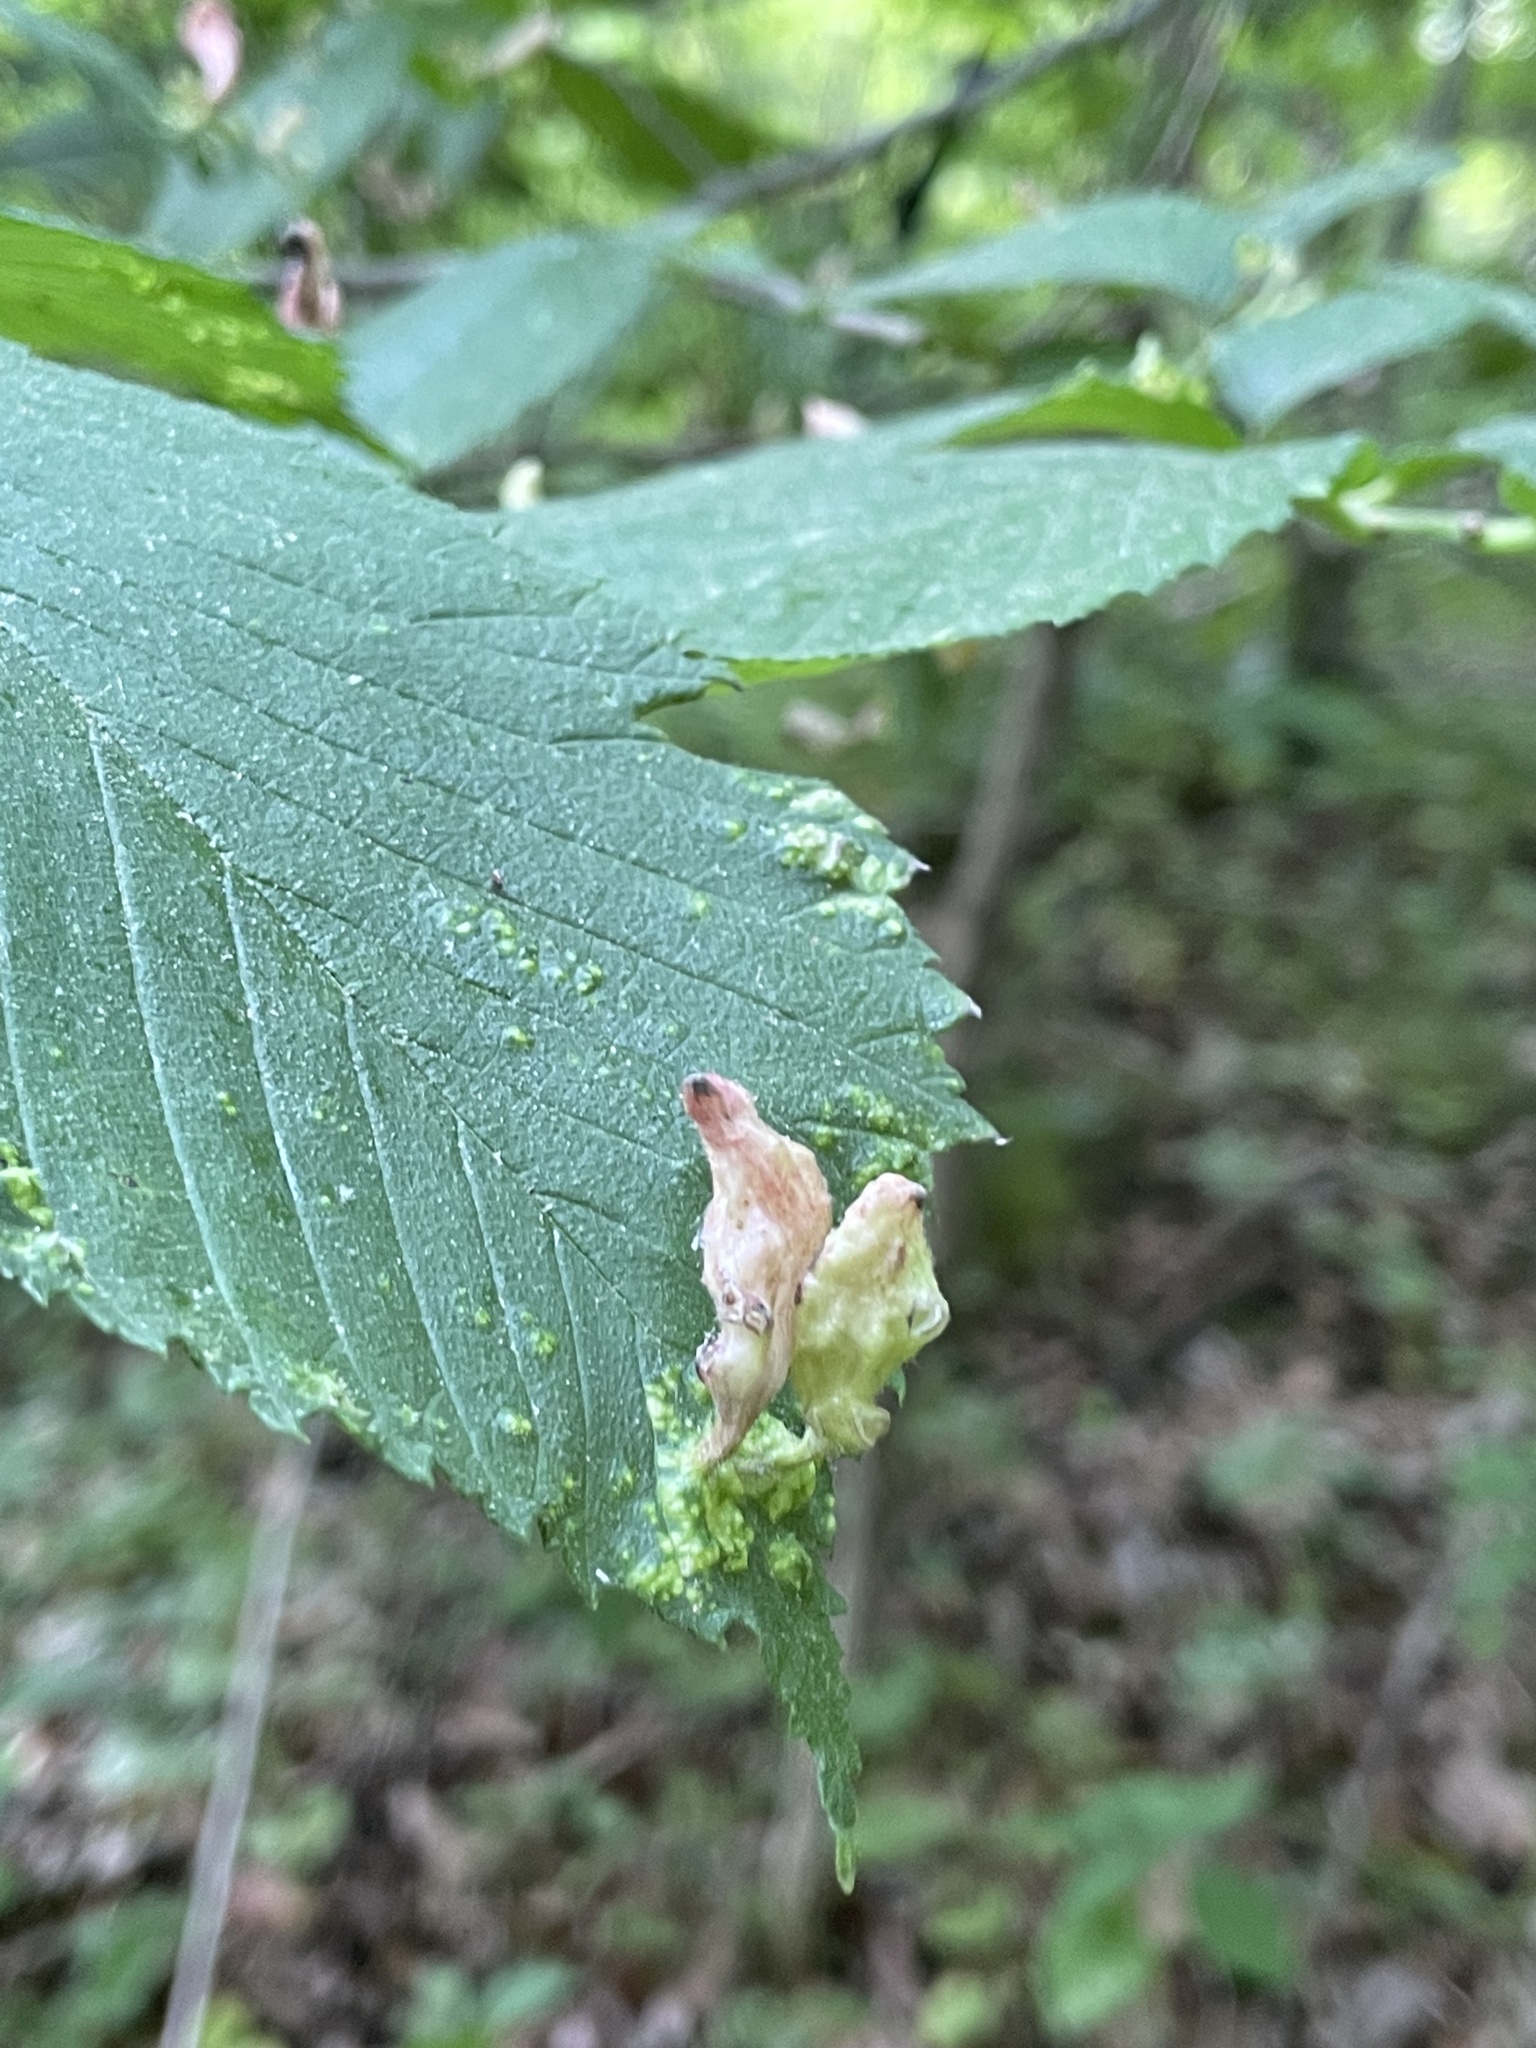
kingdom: Animalia
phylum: Arthropoda
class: Insecta
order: Hemiptera
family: Aphididae
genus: Tetraneura
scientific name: Tetraneura nigriabdominalis
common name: Aphid
